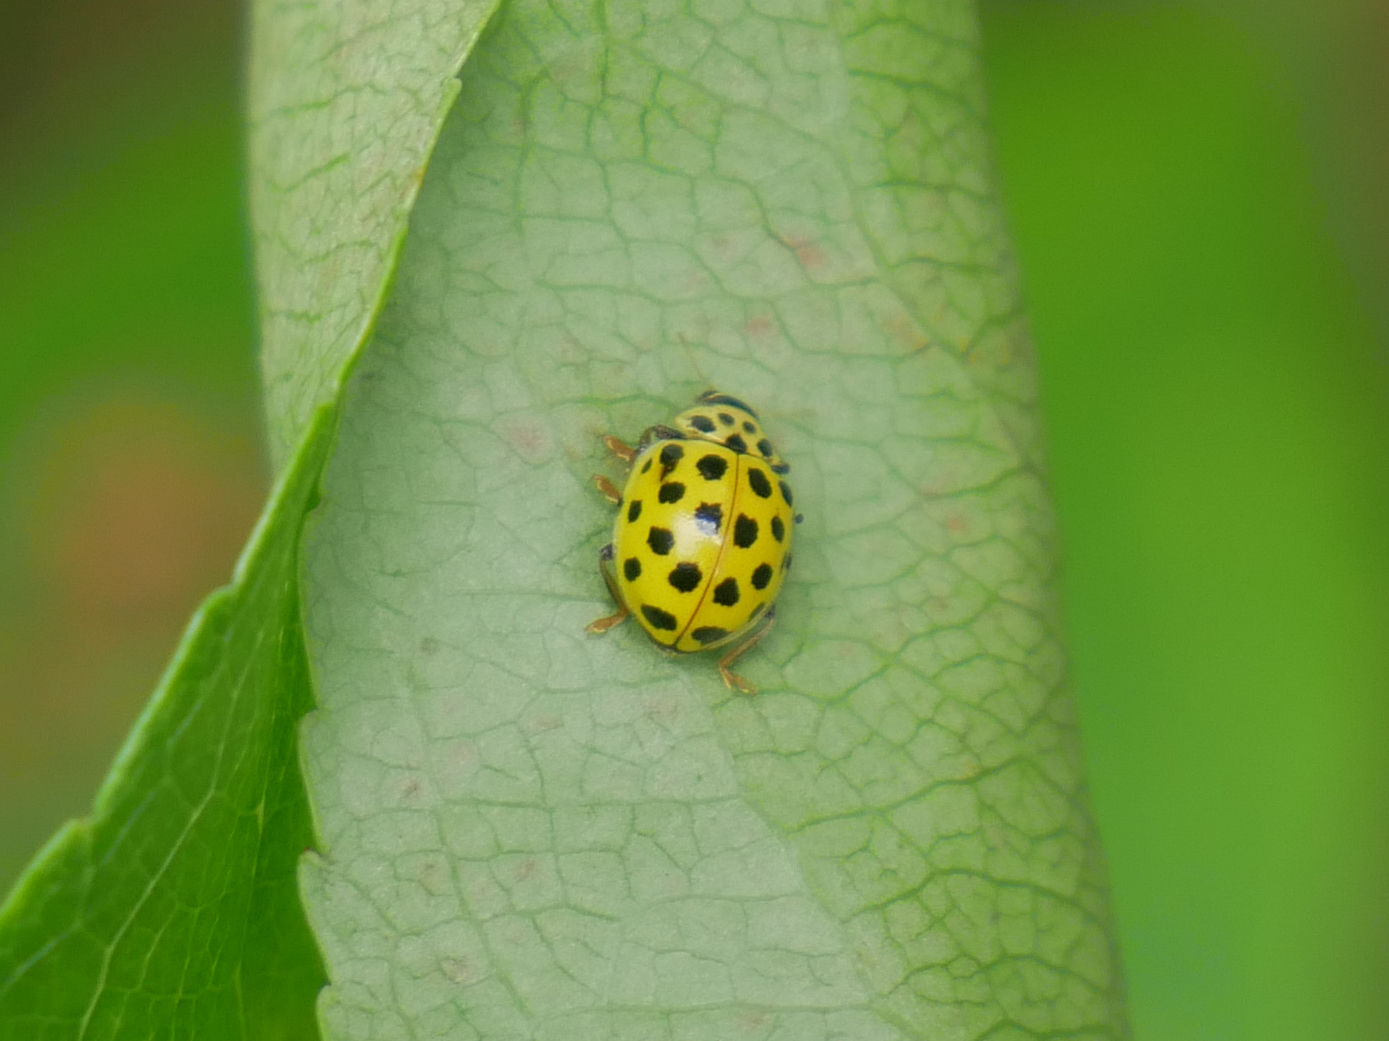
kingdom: Animalia
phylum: Arthropoda
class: Insecta
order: Coleoptera
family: Coccinellidae
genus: Psyllobora
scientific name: Psyllobora vigintiduopunctata
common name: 22-spot ladybird
